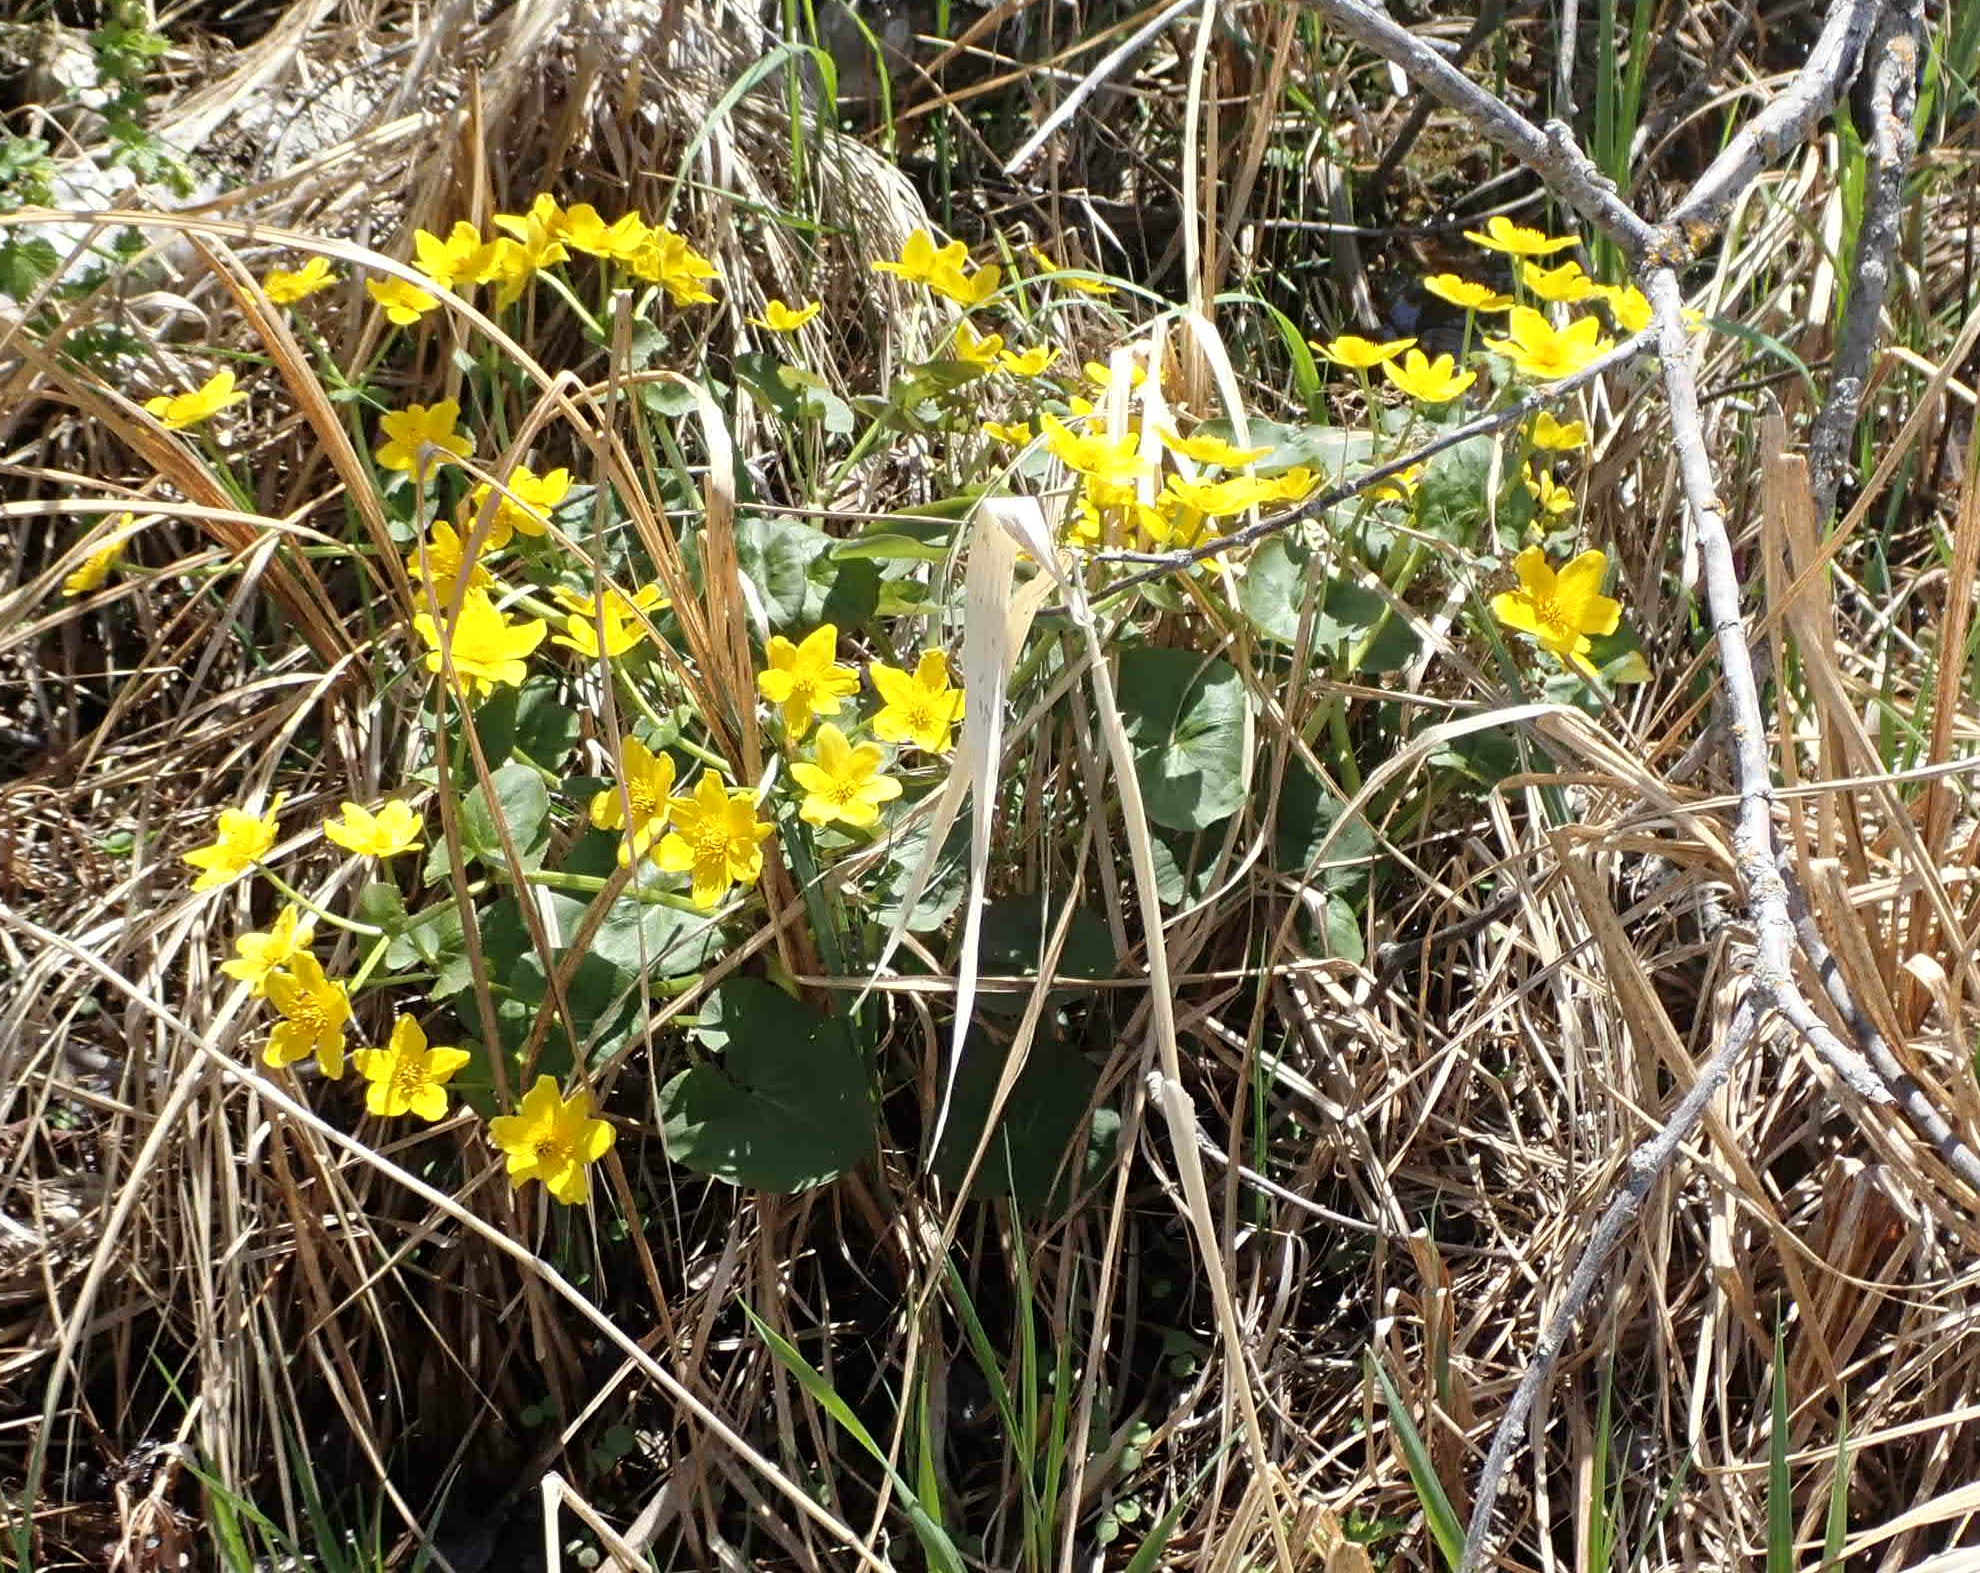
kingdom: Plantae
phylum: Tracheophyta
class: Magnoliopsida
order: Ranunculales
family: Ranunculaceae
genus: Caltha
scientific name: Caltha palustris
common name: Marsh marigold
